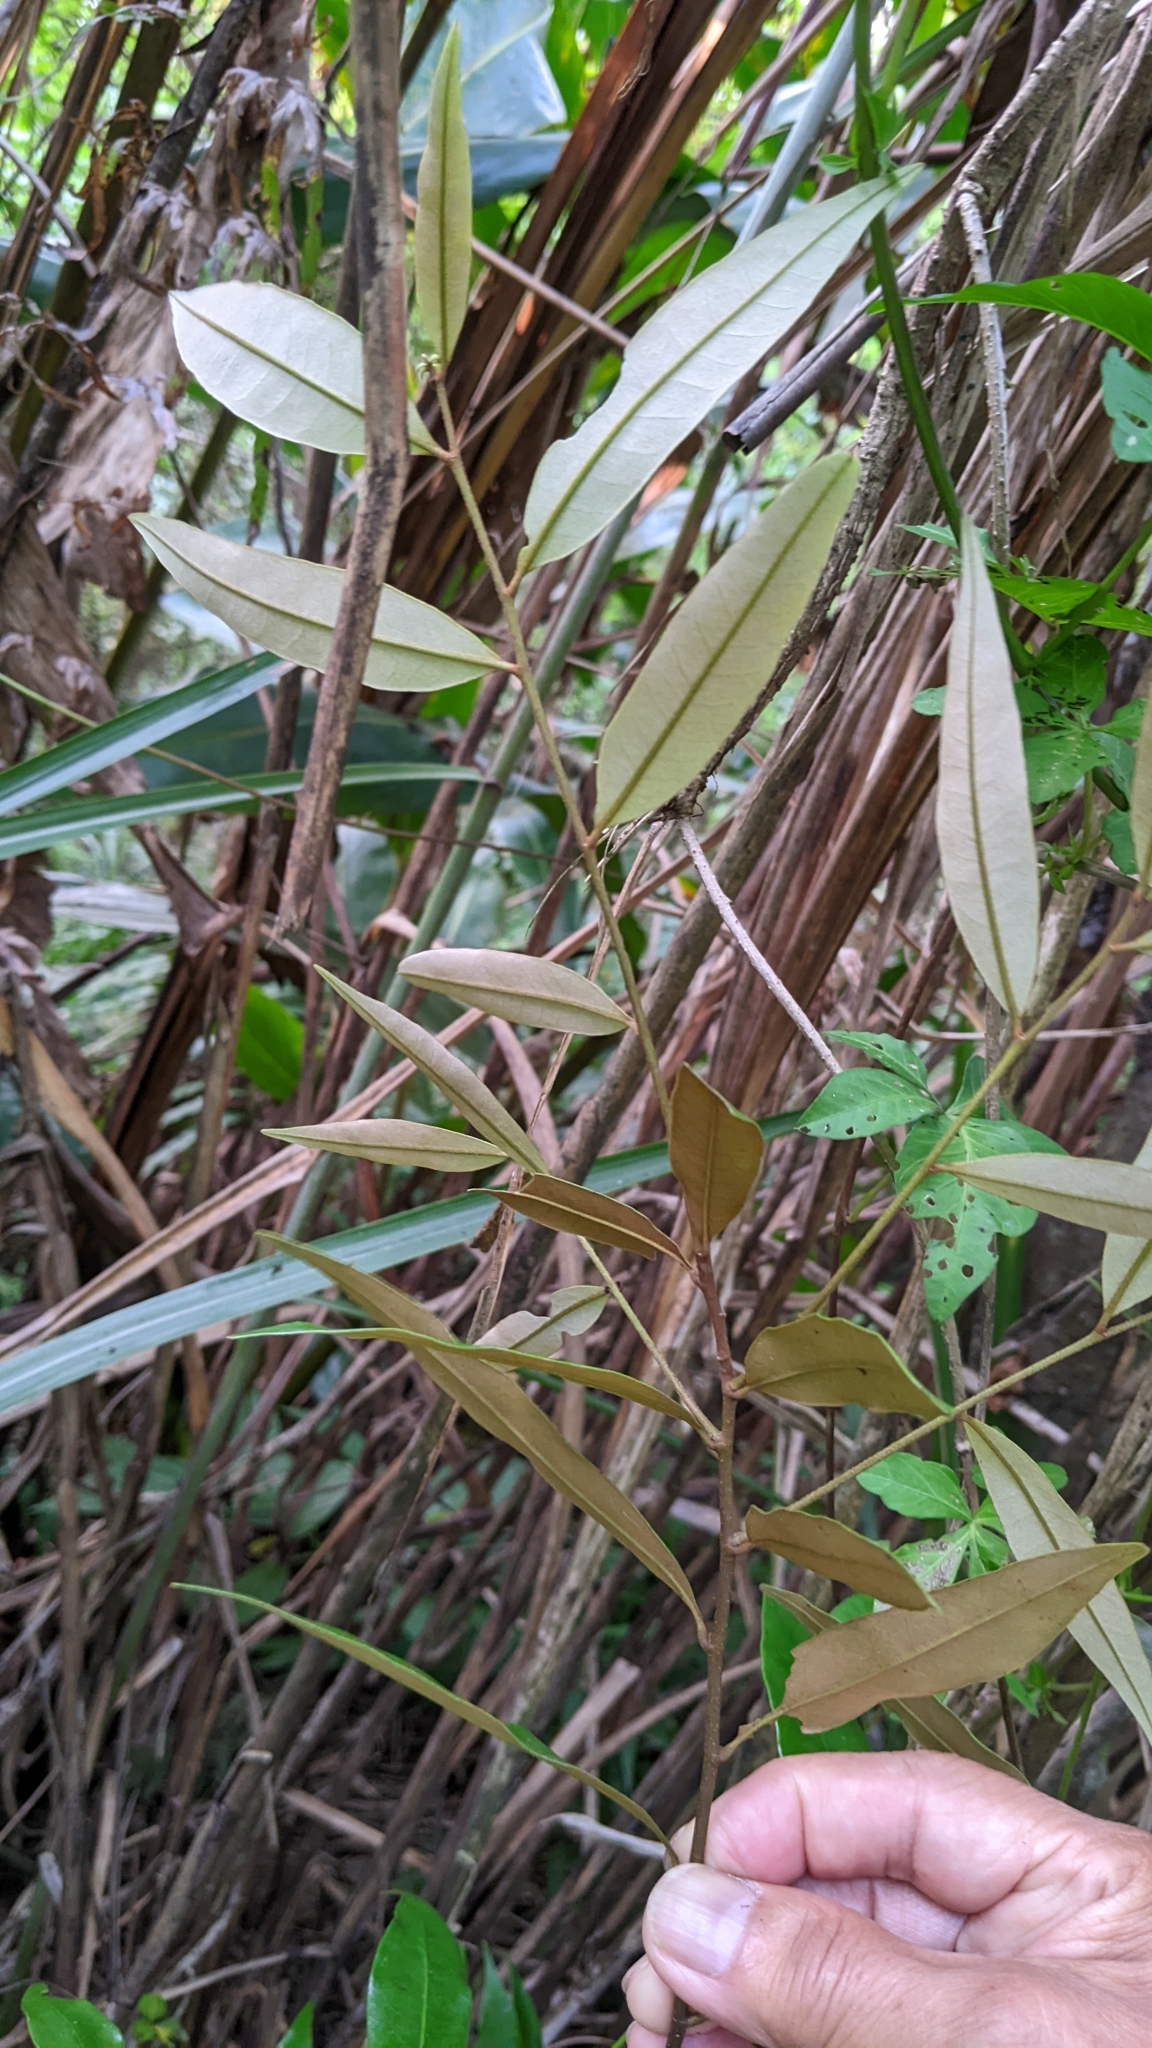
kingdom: Plantae
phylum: Tracheophyta
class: Magnoliopsida
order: Fagales
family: Fagaceae
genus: Castanopsis
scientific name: Castanopsis fargesii
